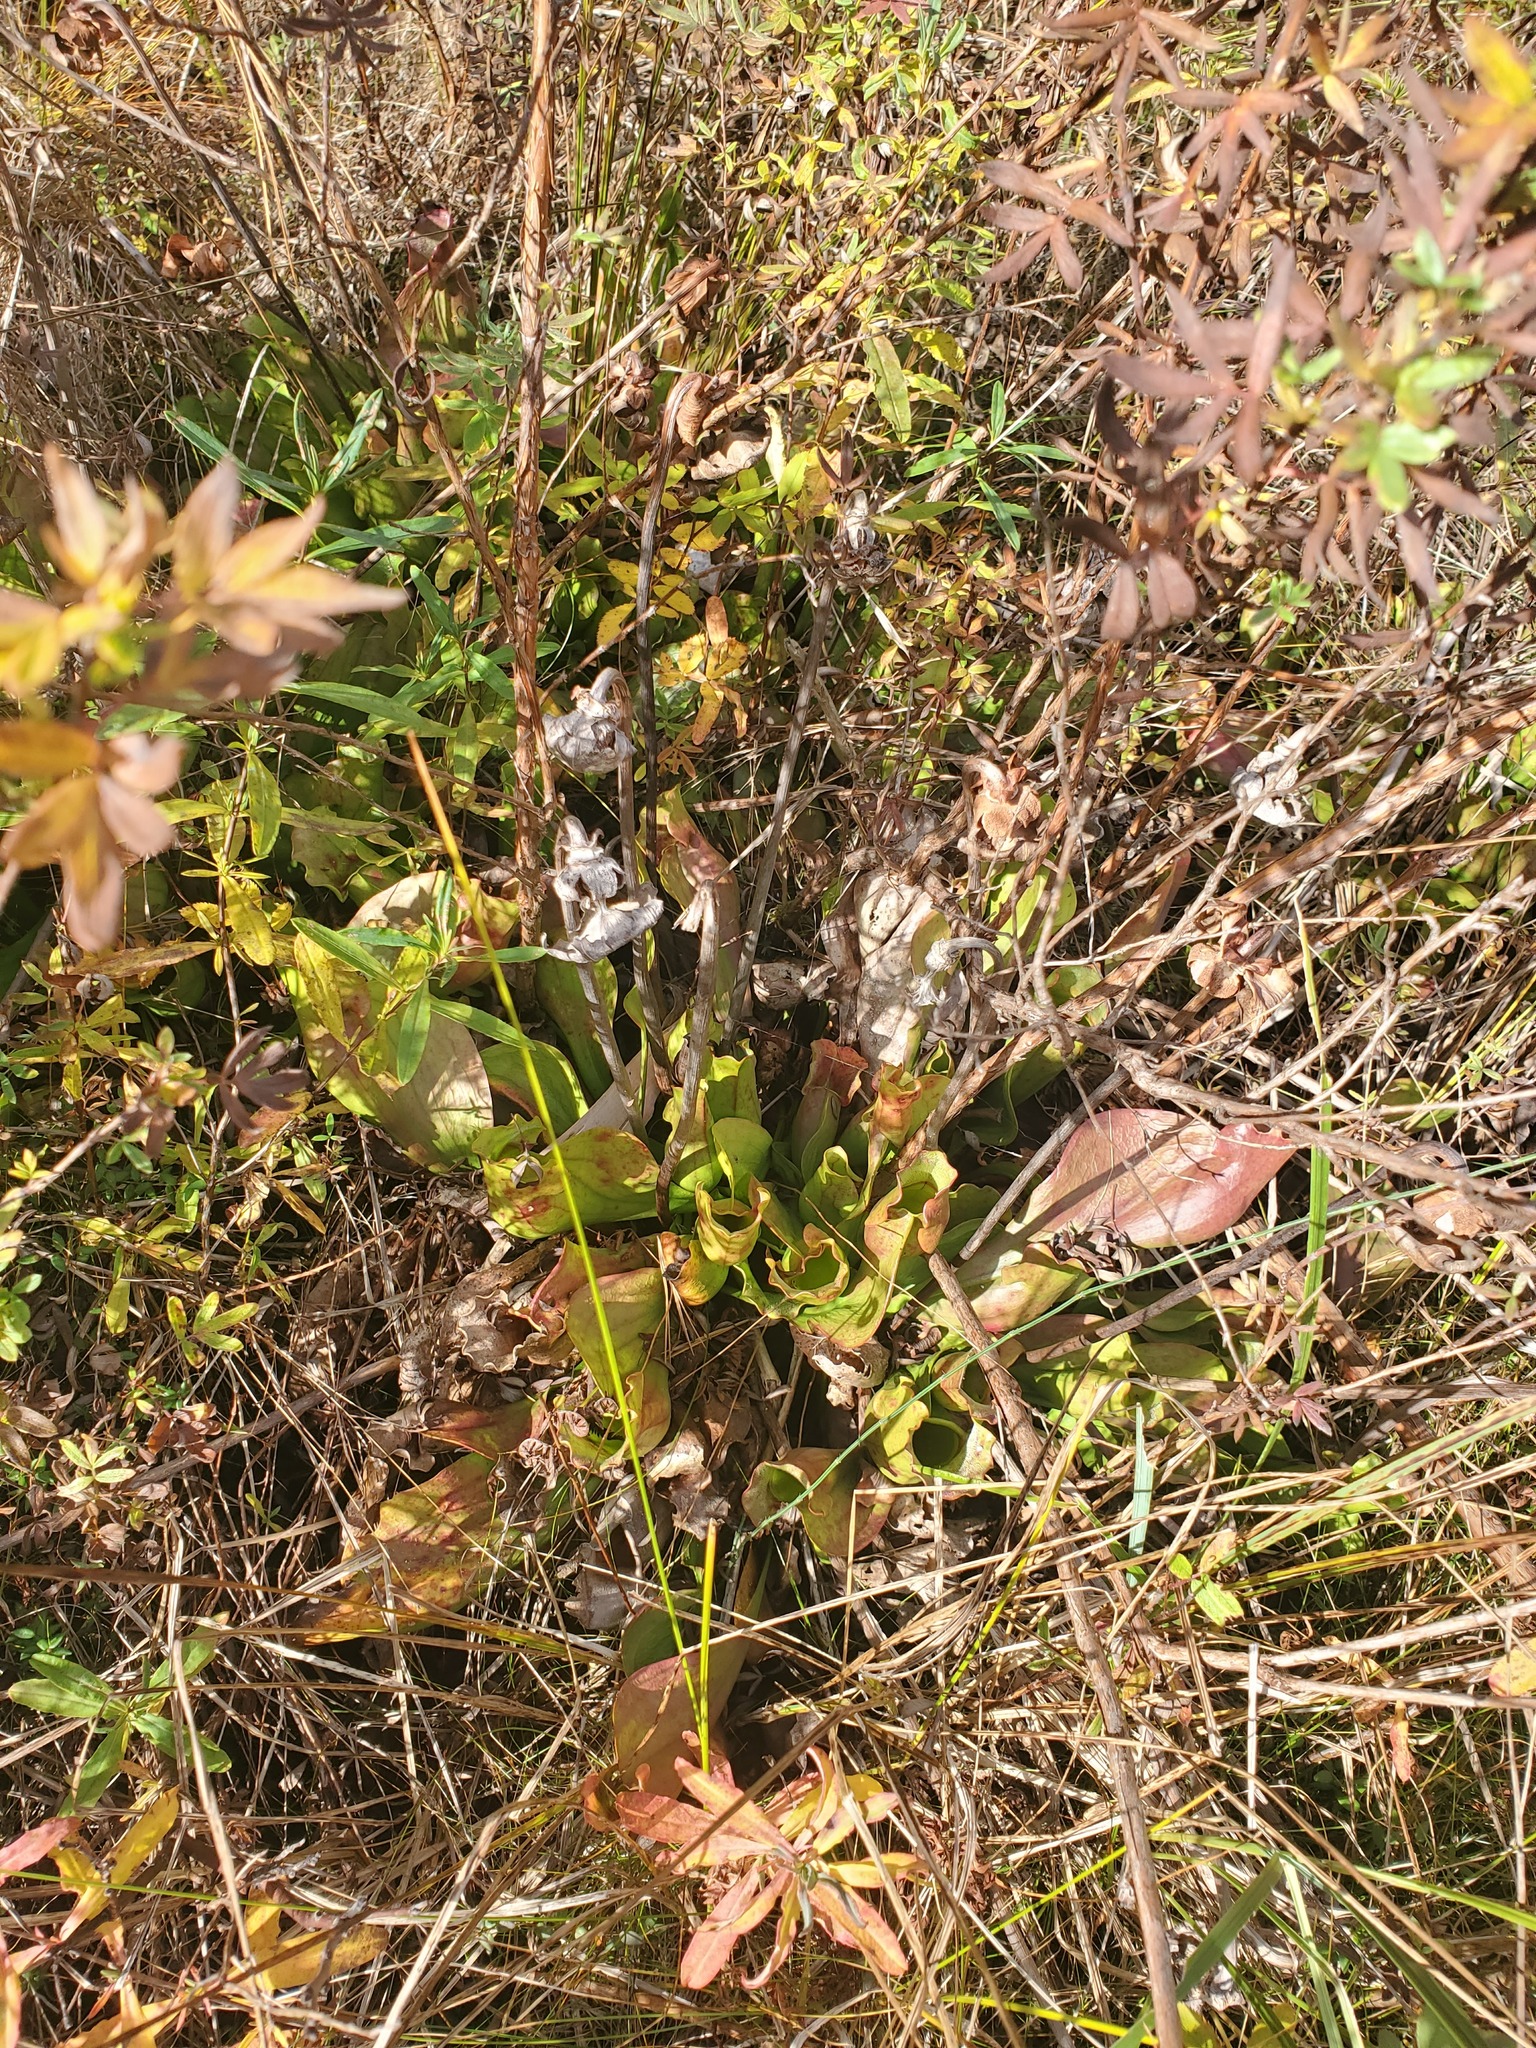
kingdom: Plantae
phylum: Tracheophyta
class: Magnoliopsida
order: Ericales
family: Sarraceniaceae
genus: Sarracenia
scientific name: Sarracenia purpurea
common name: Pitcherplant
